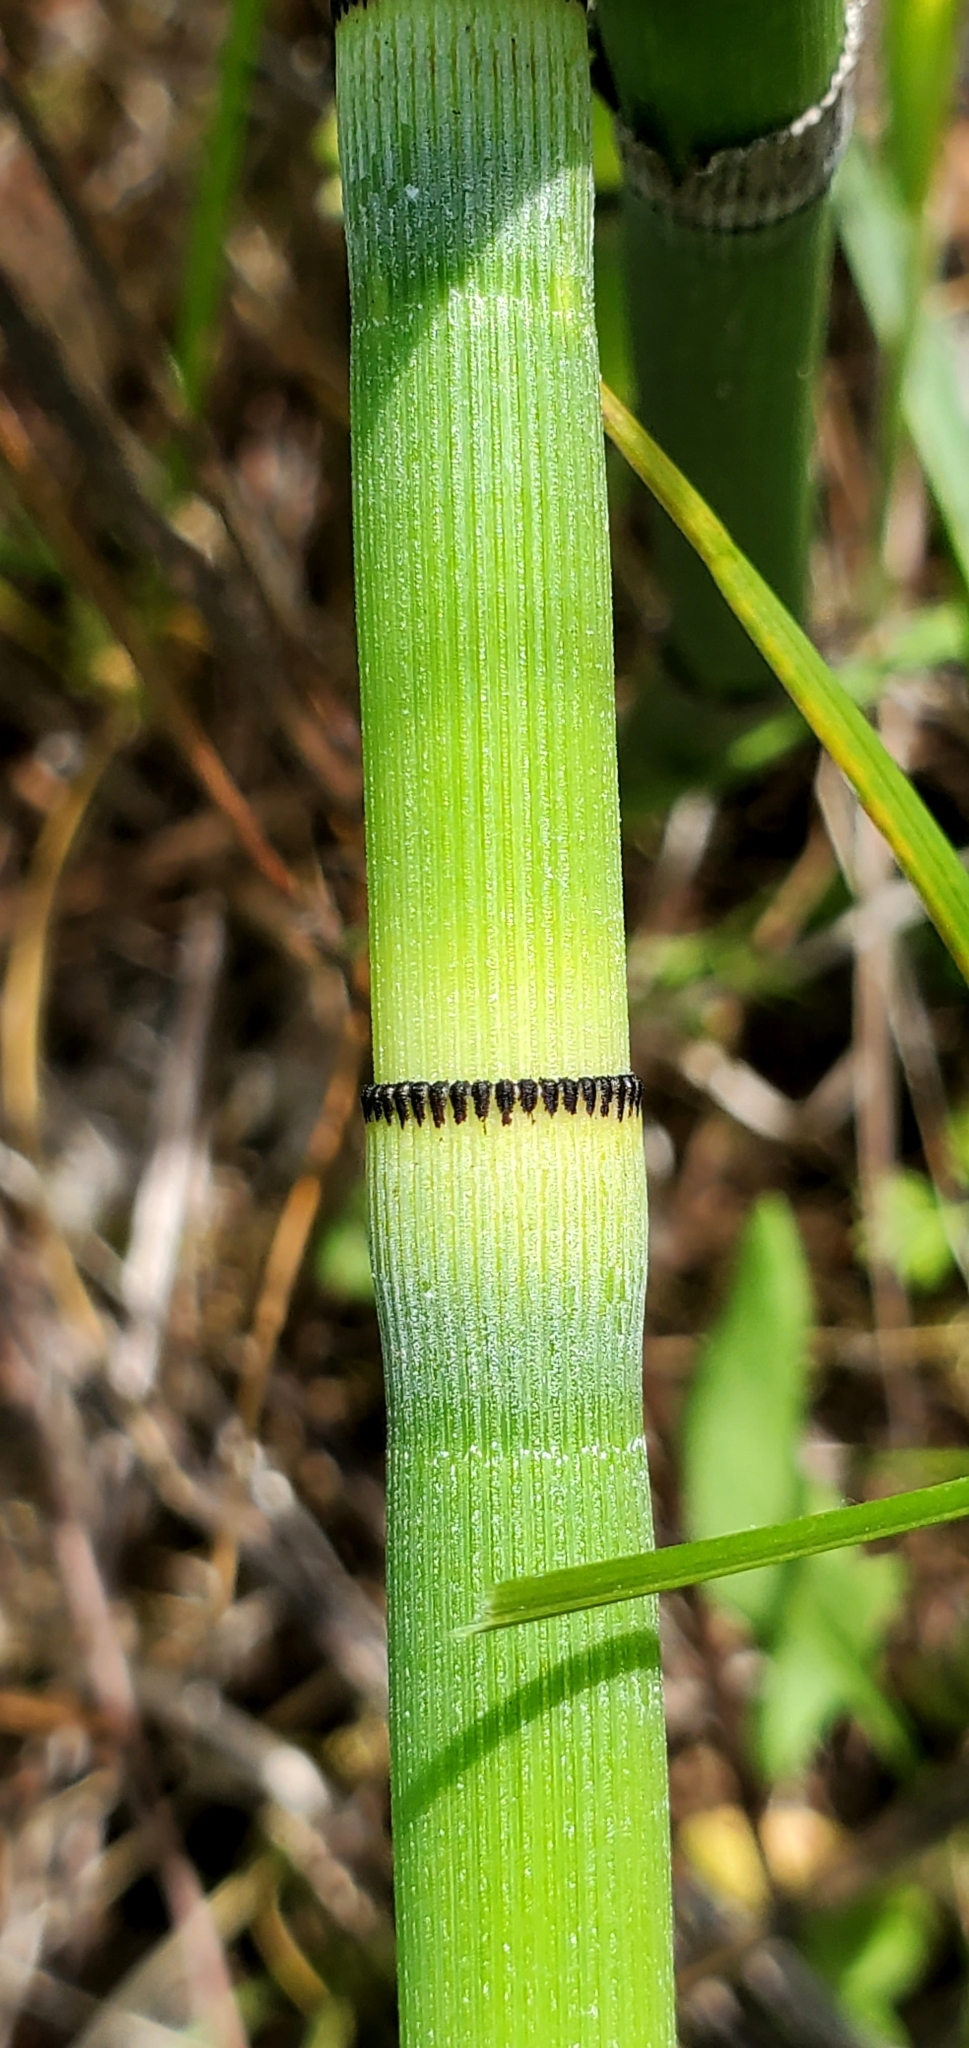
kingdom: Plantae
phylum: Tracheophyta
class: Polypodiopsida
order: Equisetales
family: Equisetaceae
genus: Equisetum
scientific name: Equisetum hyemale
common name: Rough horsetail
